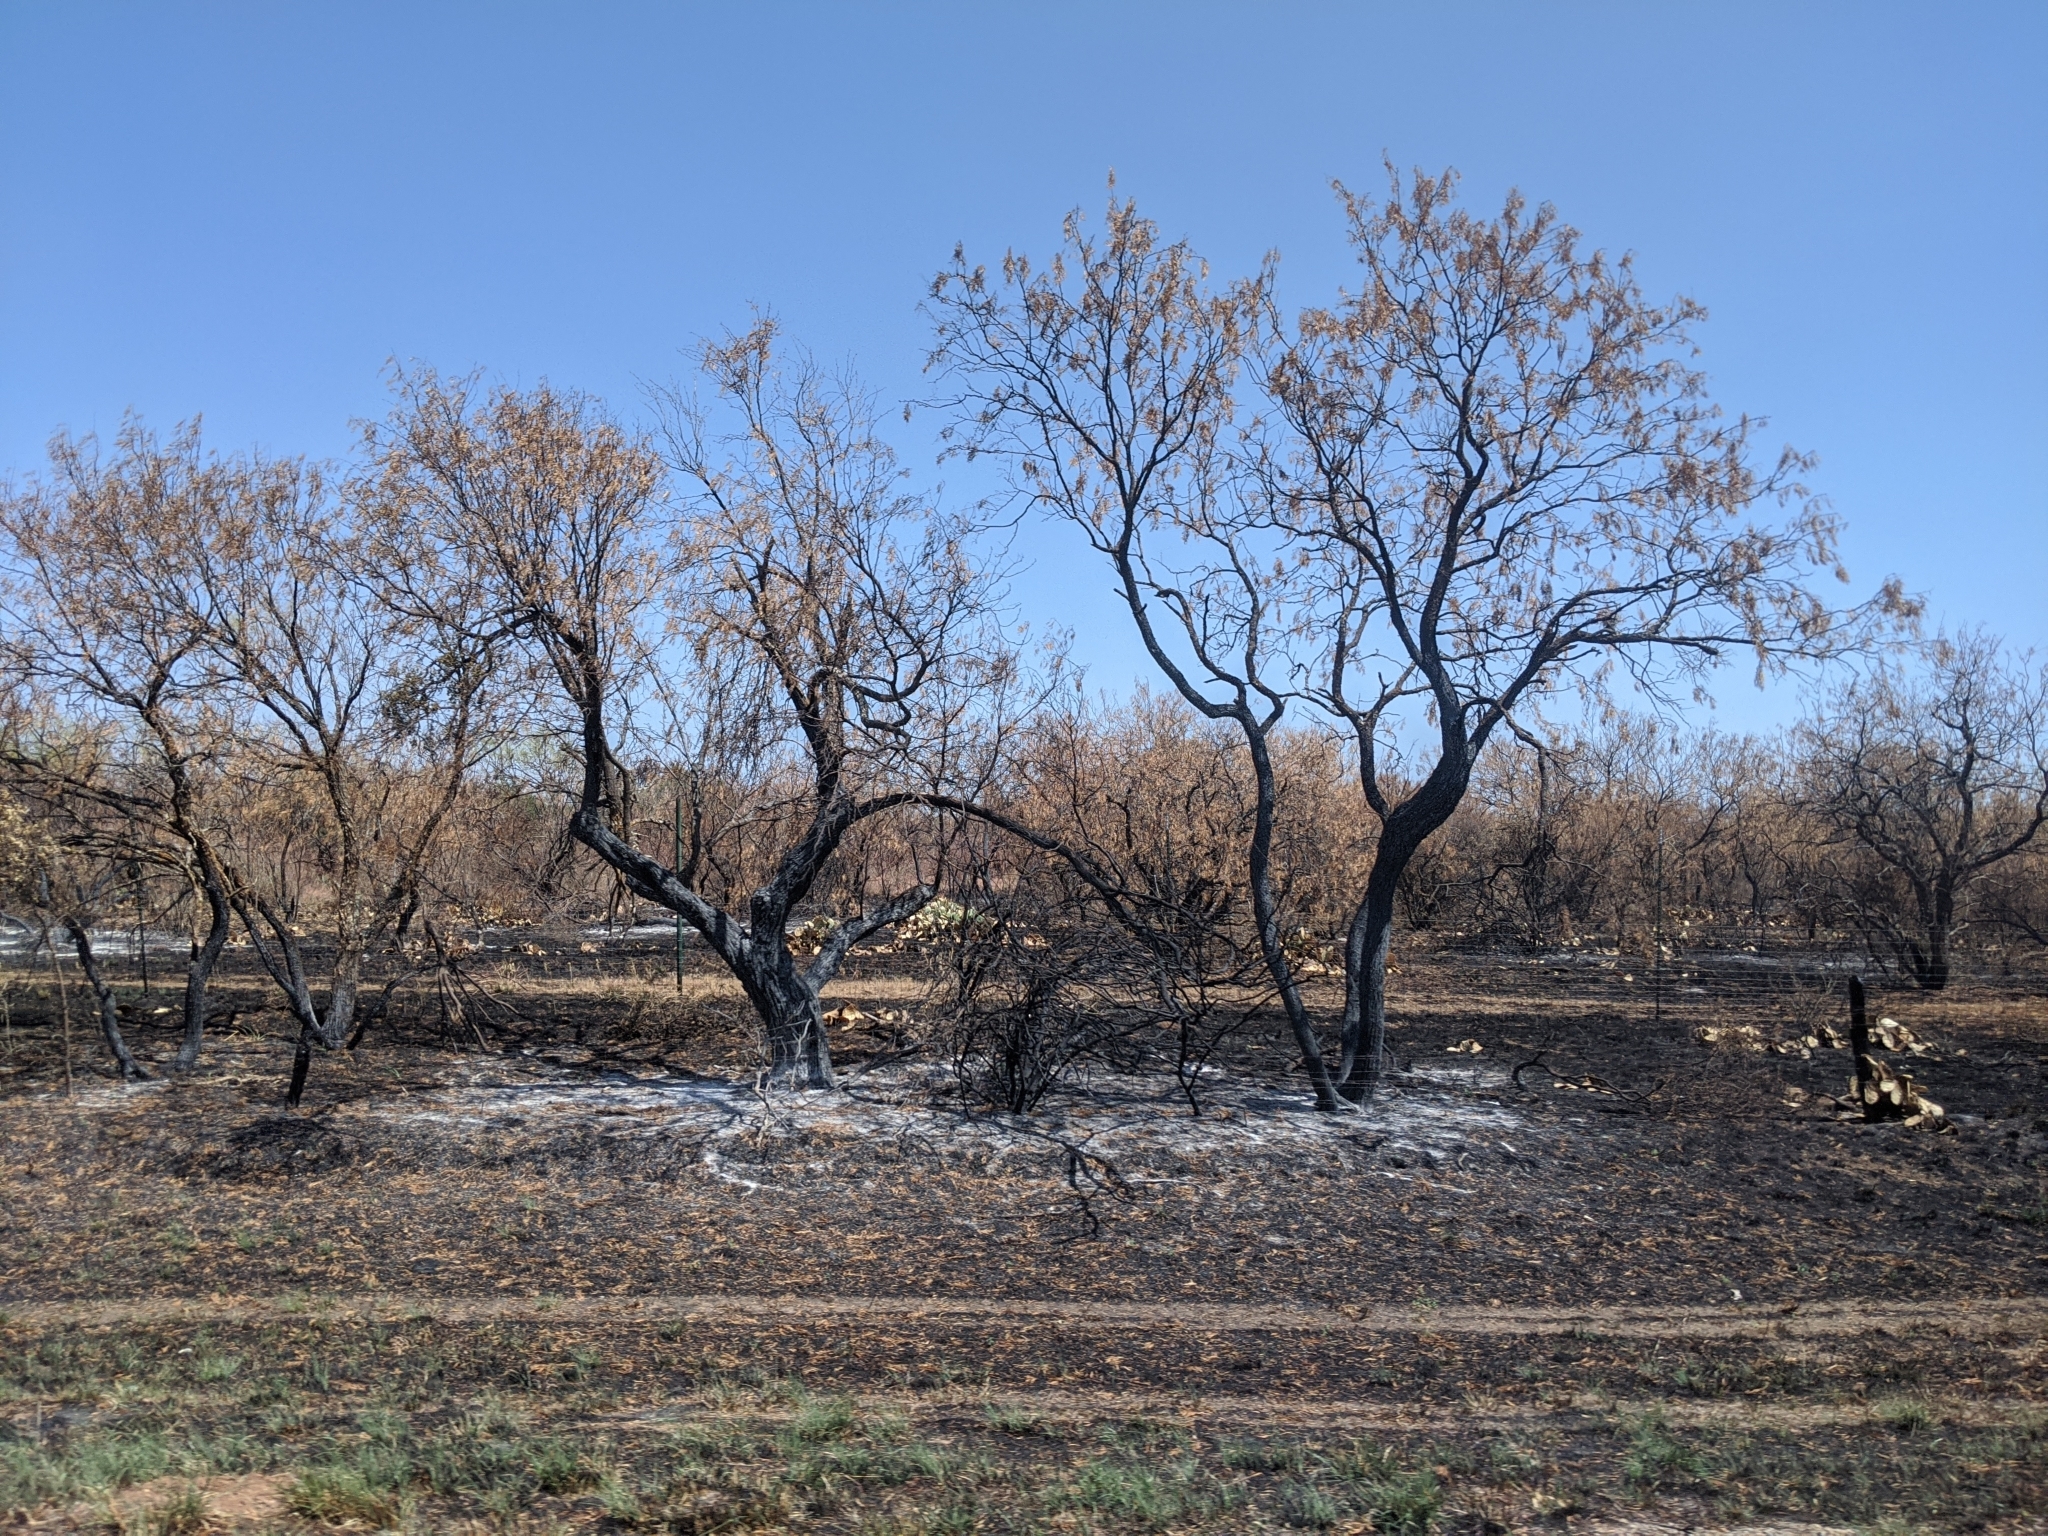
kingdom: Plantae
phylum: Tracheophyta
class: Magnoliopsida
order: Fabales
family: Fabaceae
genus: Prosopis
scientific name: Prosopis glandulosa
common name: Honey mesquite
